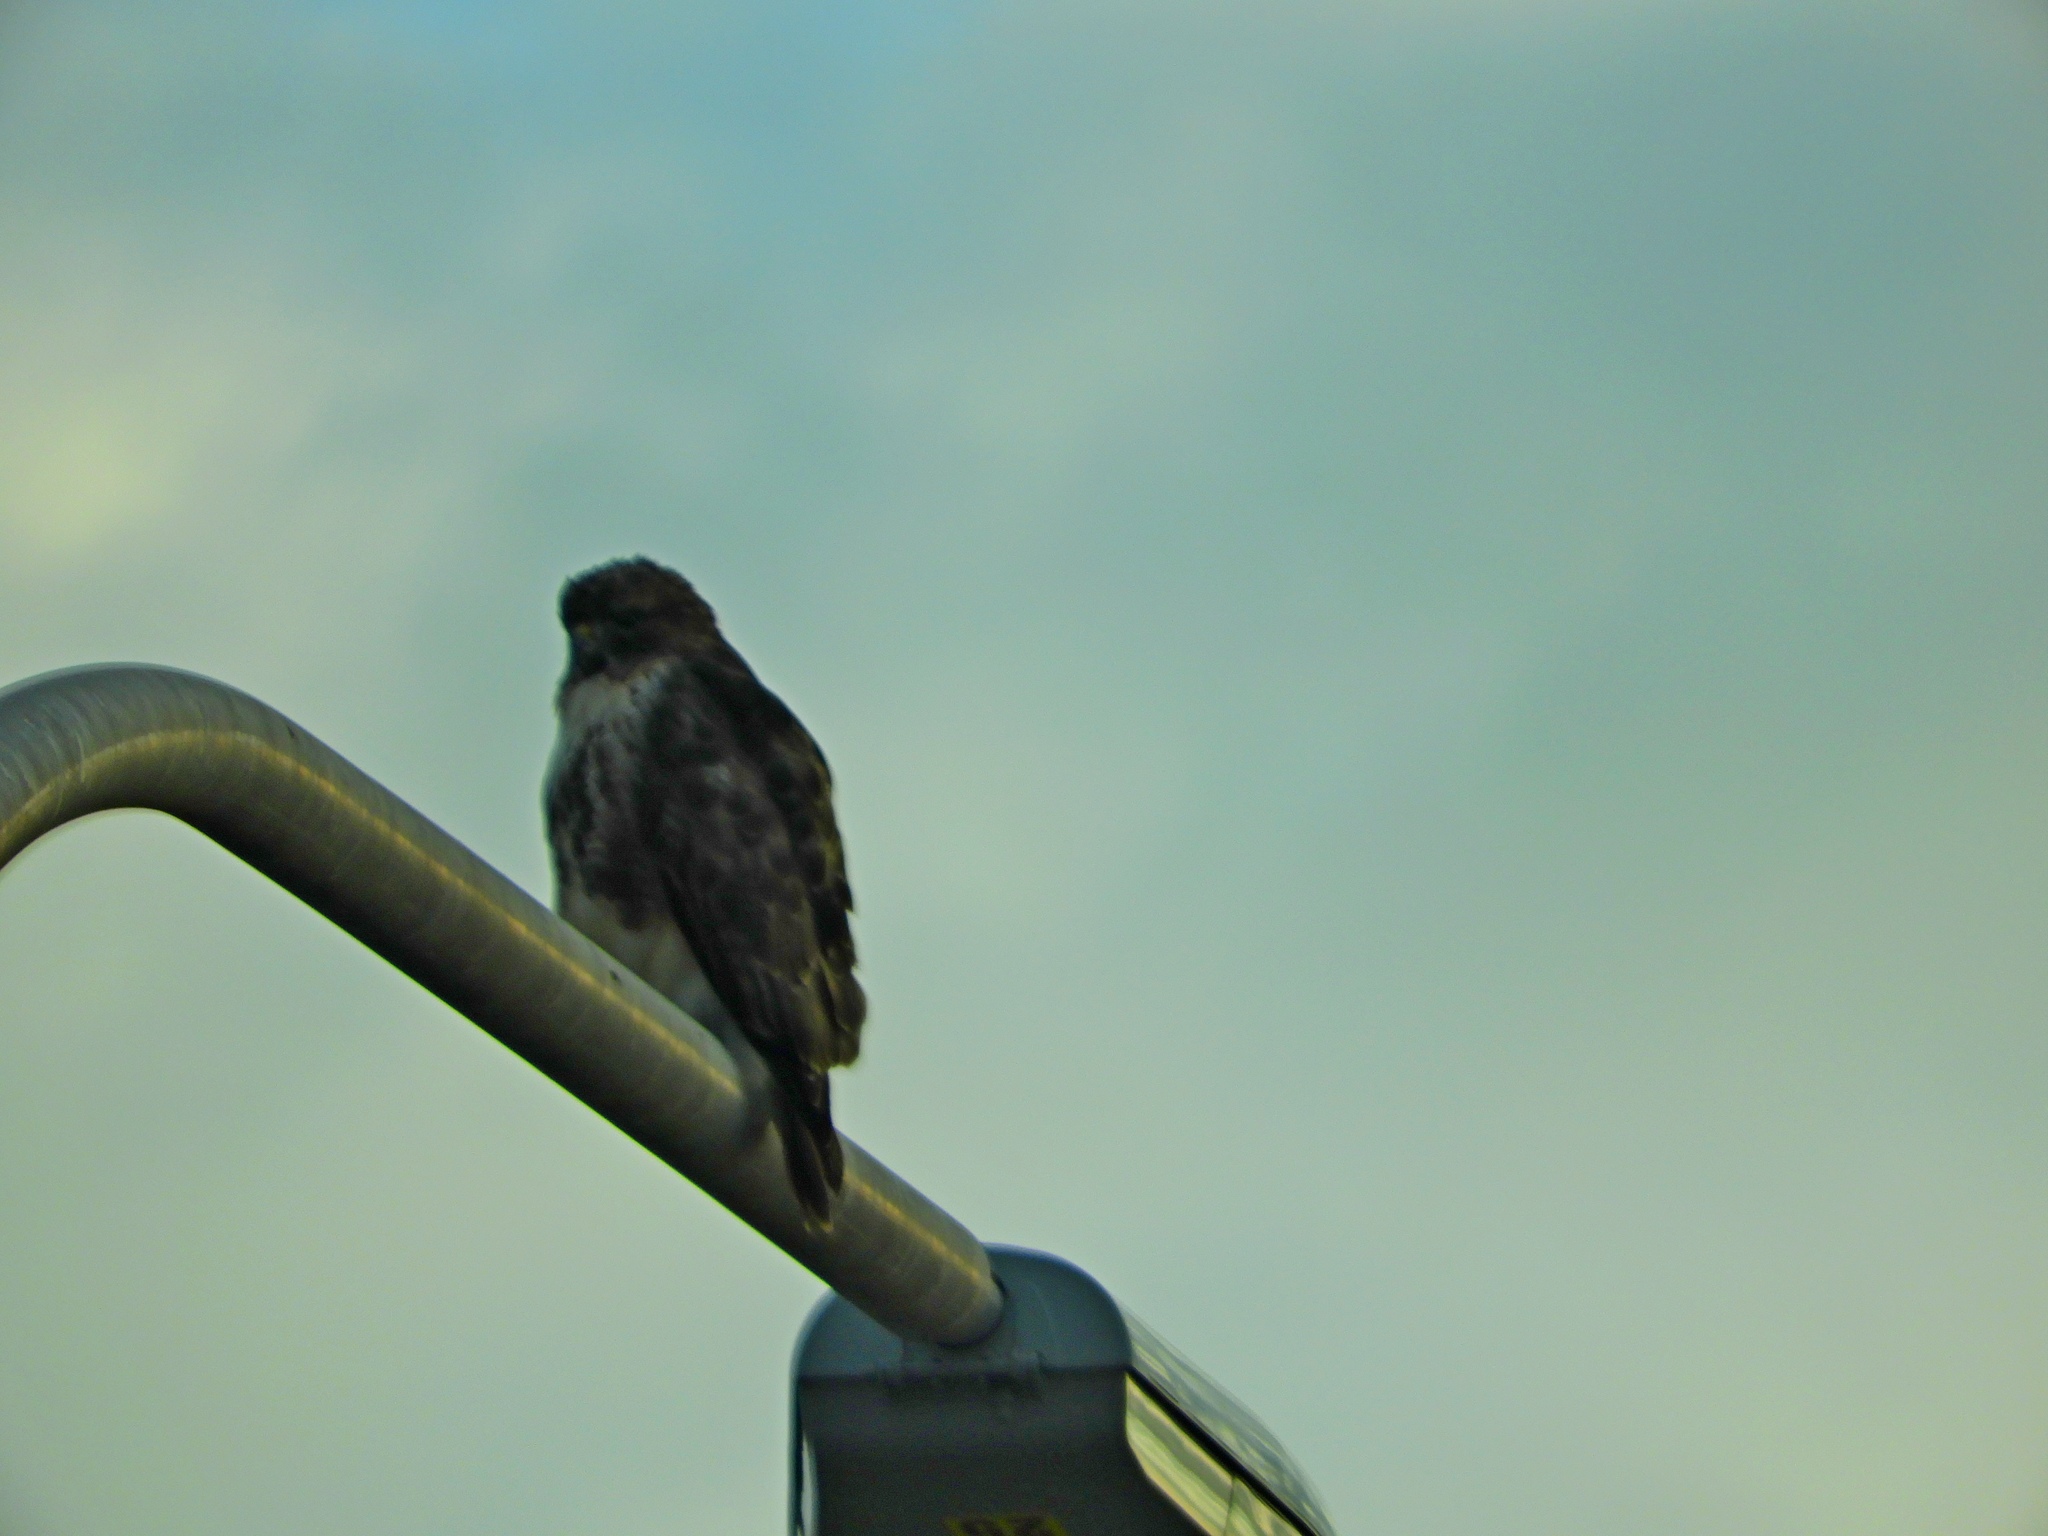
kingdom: Animalia
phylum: Chordata
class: Aves
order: Accipitriformes
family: Accipitridae
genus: Buteo
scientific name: Buteo jamaicensis
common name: Red-tailed hawk
